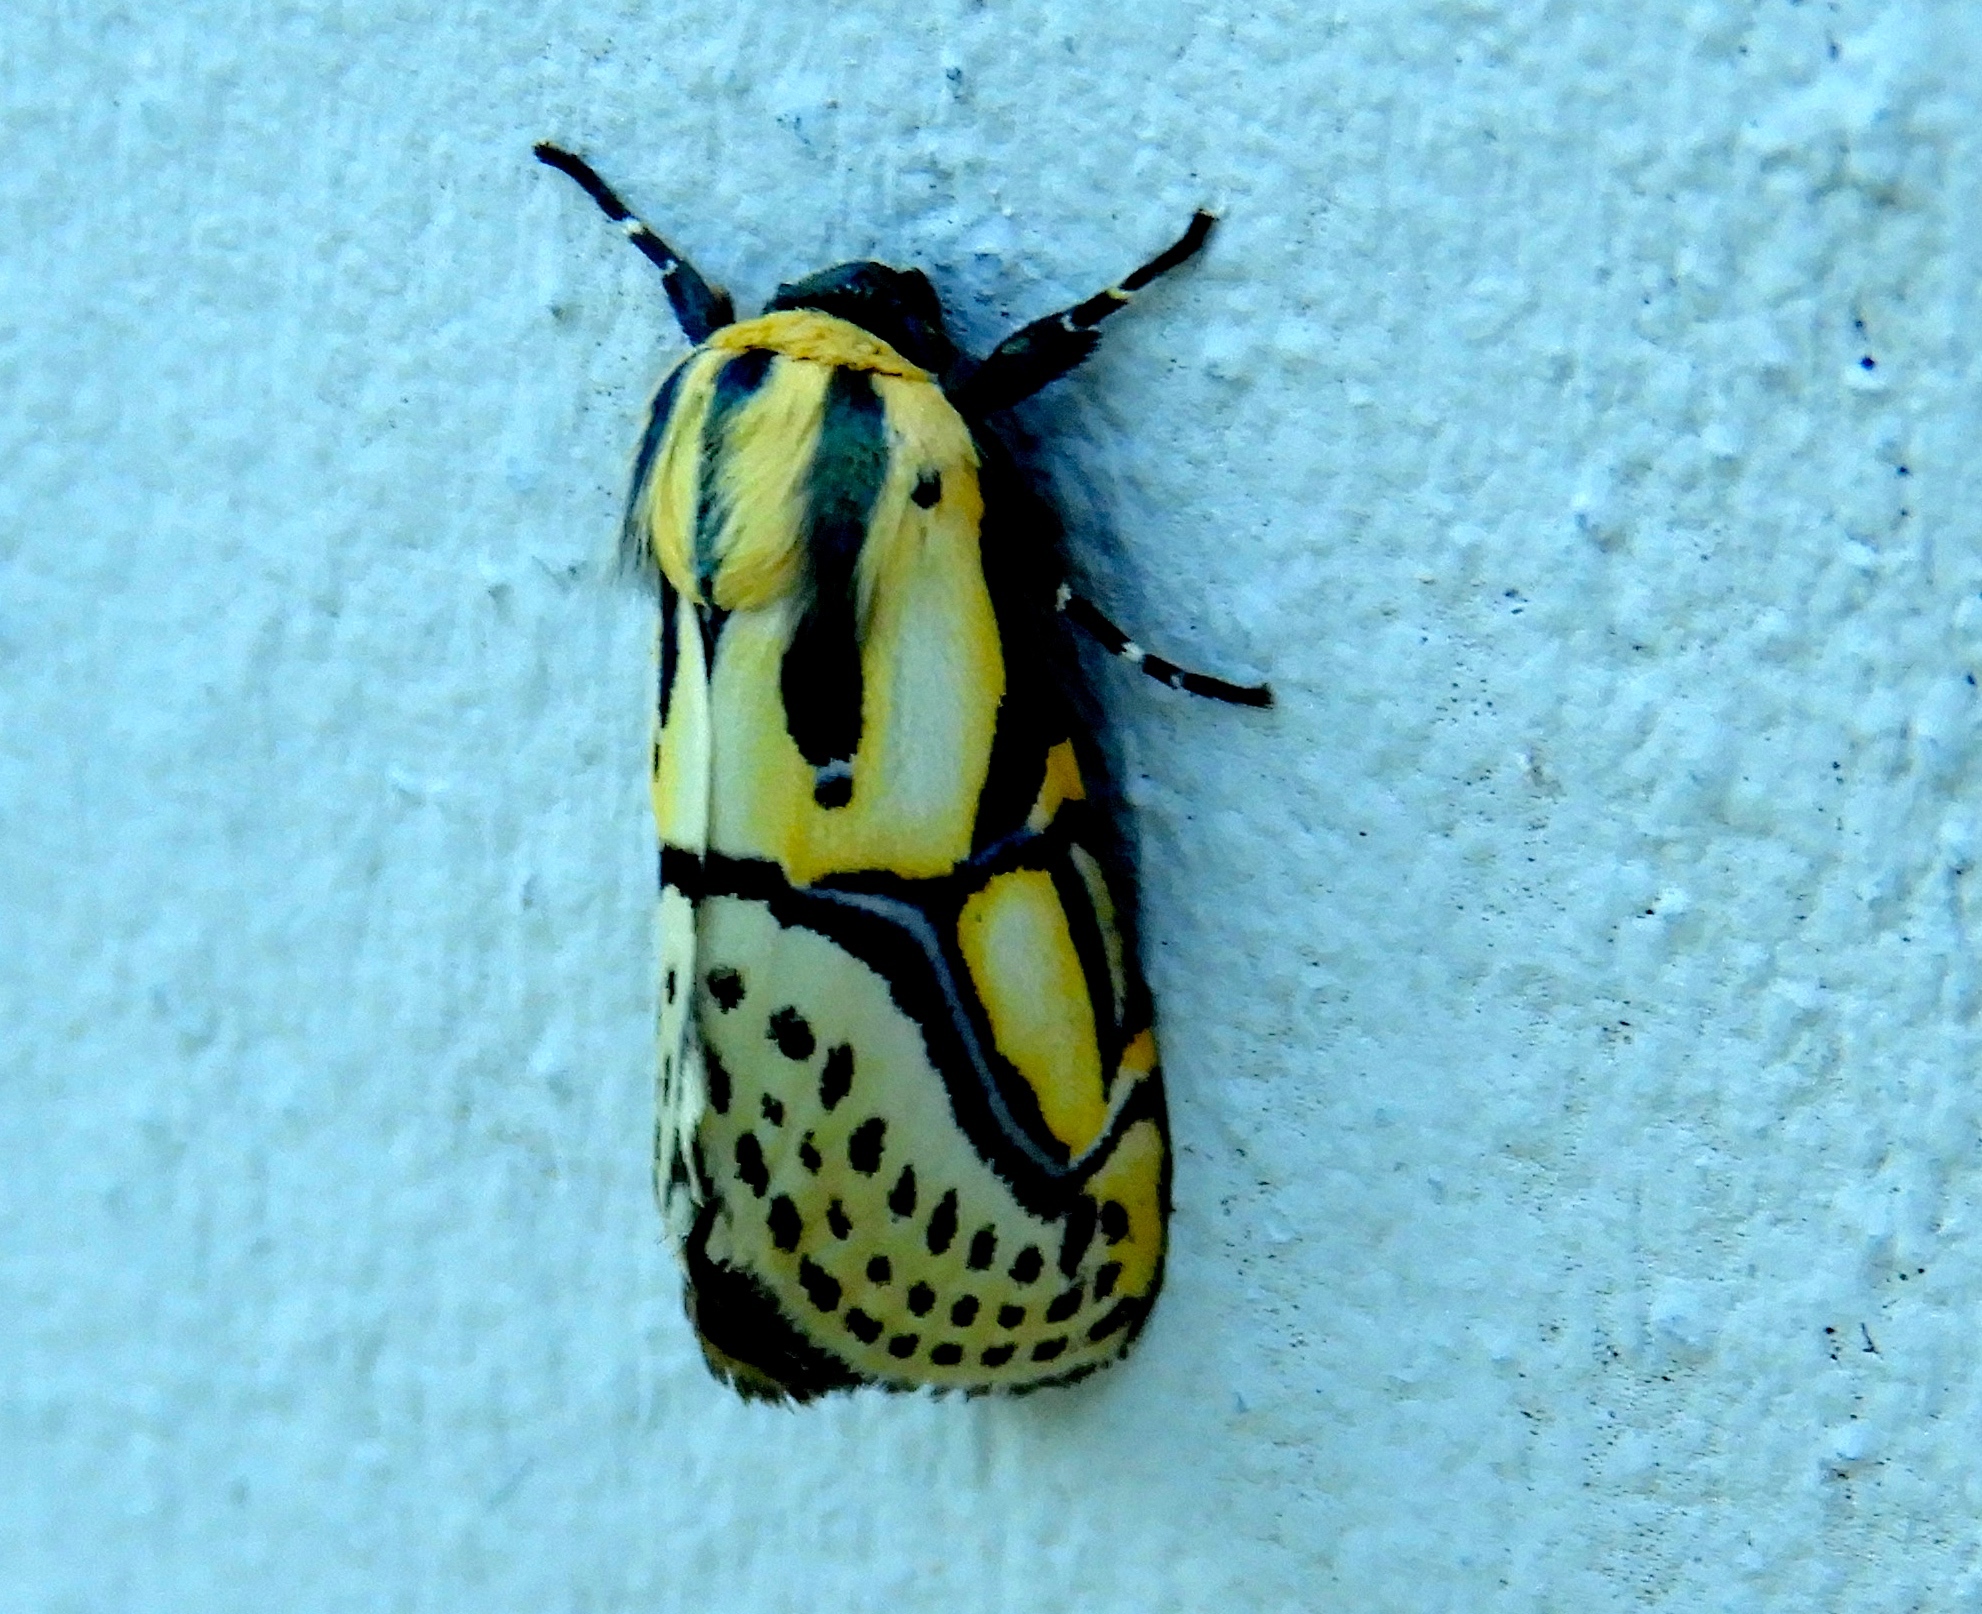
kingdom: Animalia
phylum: Arthropoda
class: Insecta
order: Lepidoptera
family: Erebidae
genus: Diphthera
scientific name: Diphthera festiva
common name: Hieroglyphic moth
